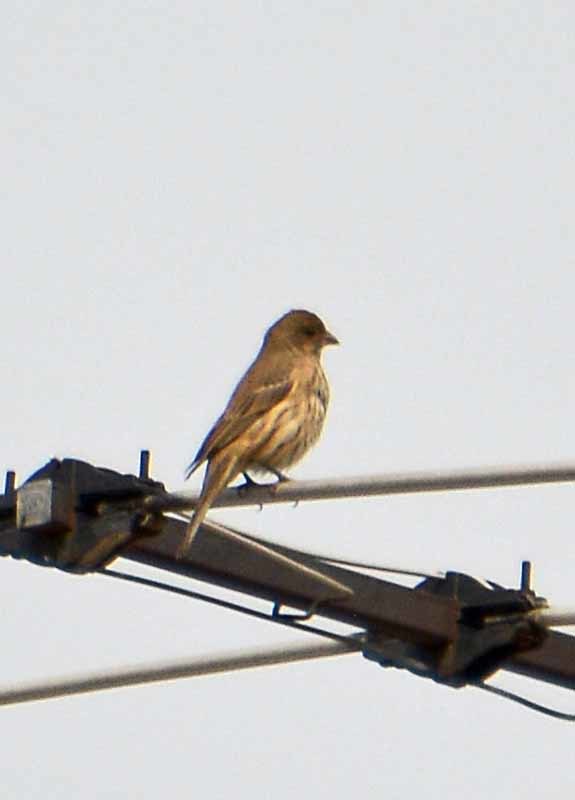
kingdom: Animalia
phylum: Chordata
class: Aves
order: Passeriformes
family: Fringillidae
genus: Haemorhous
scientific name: Haemorhous mexicanus
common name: House finch
